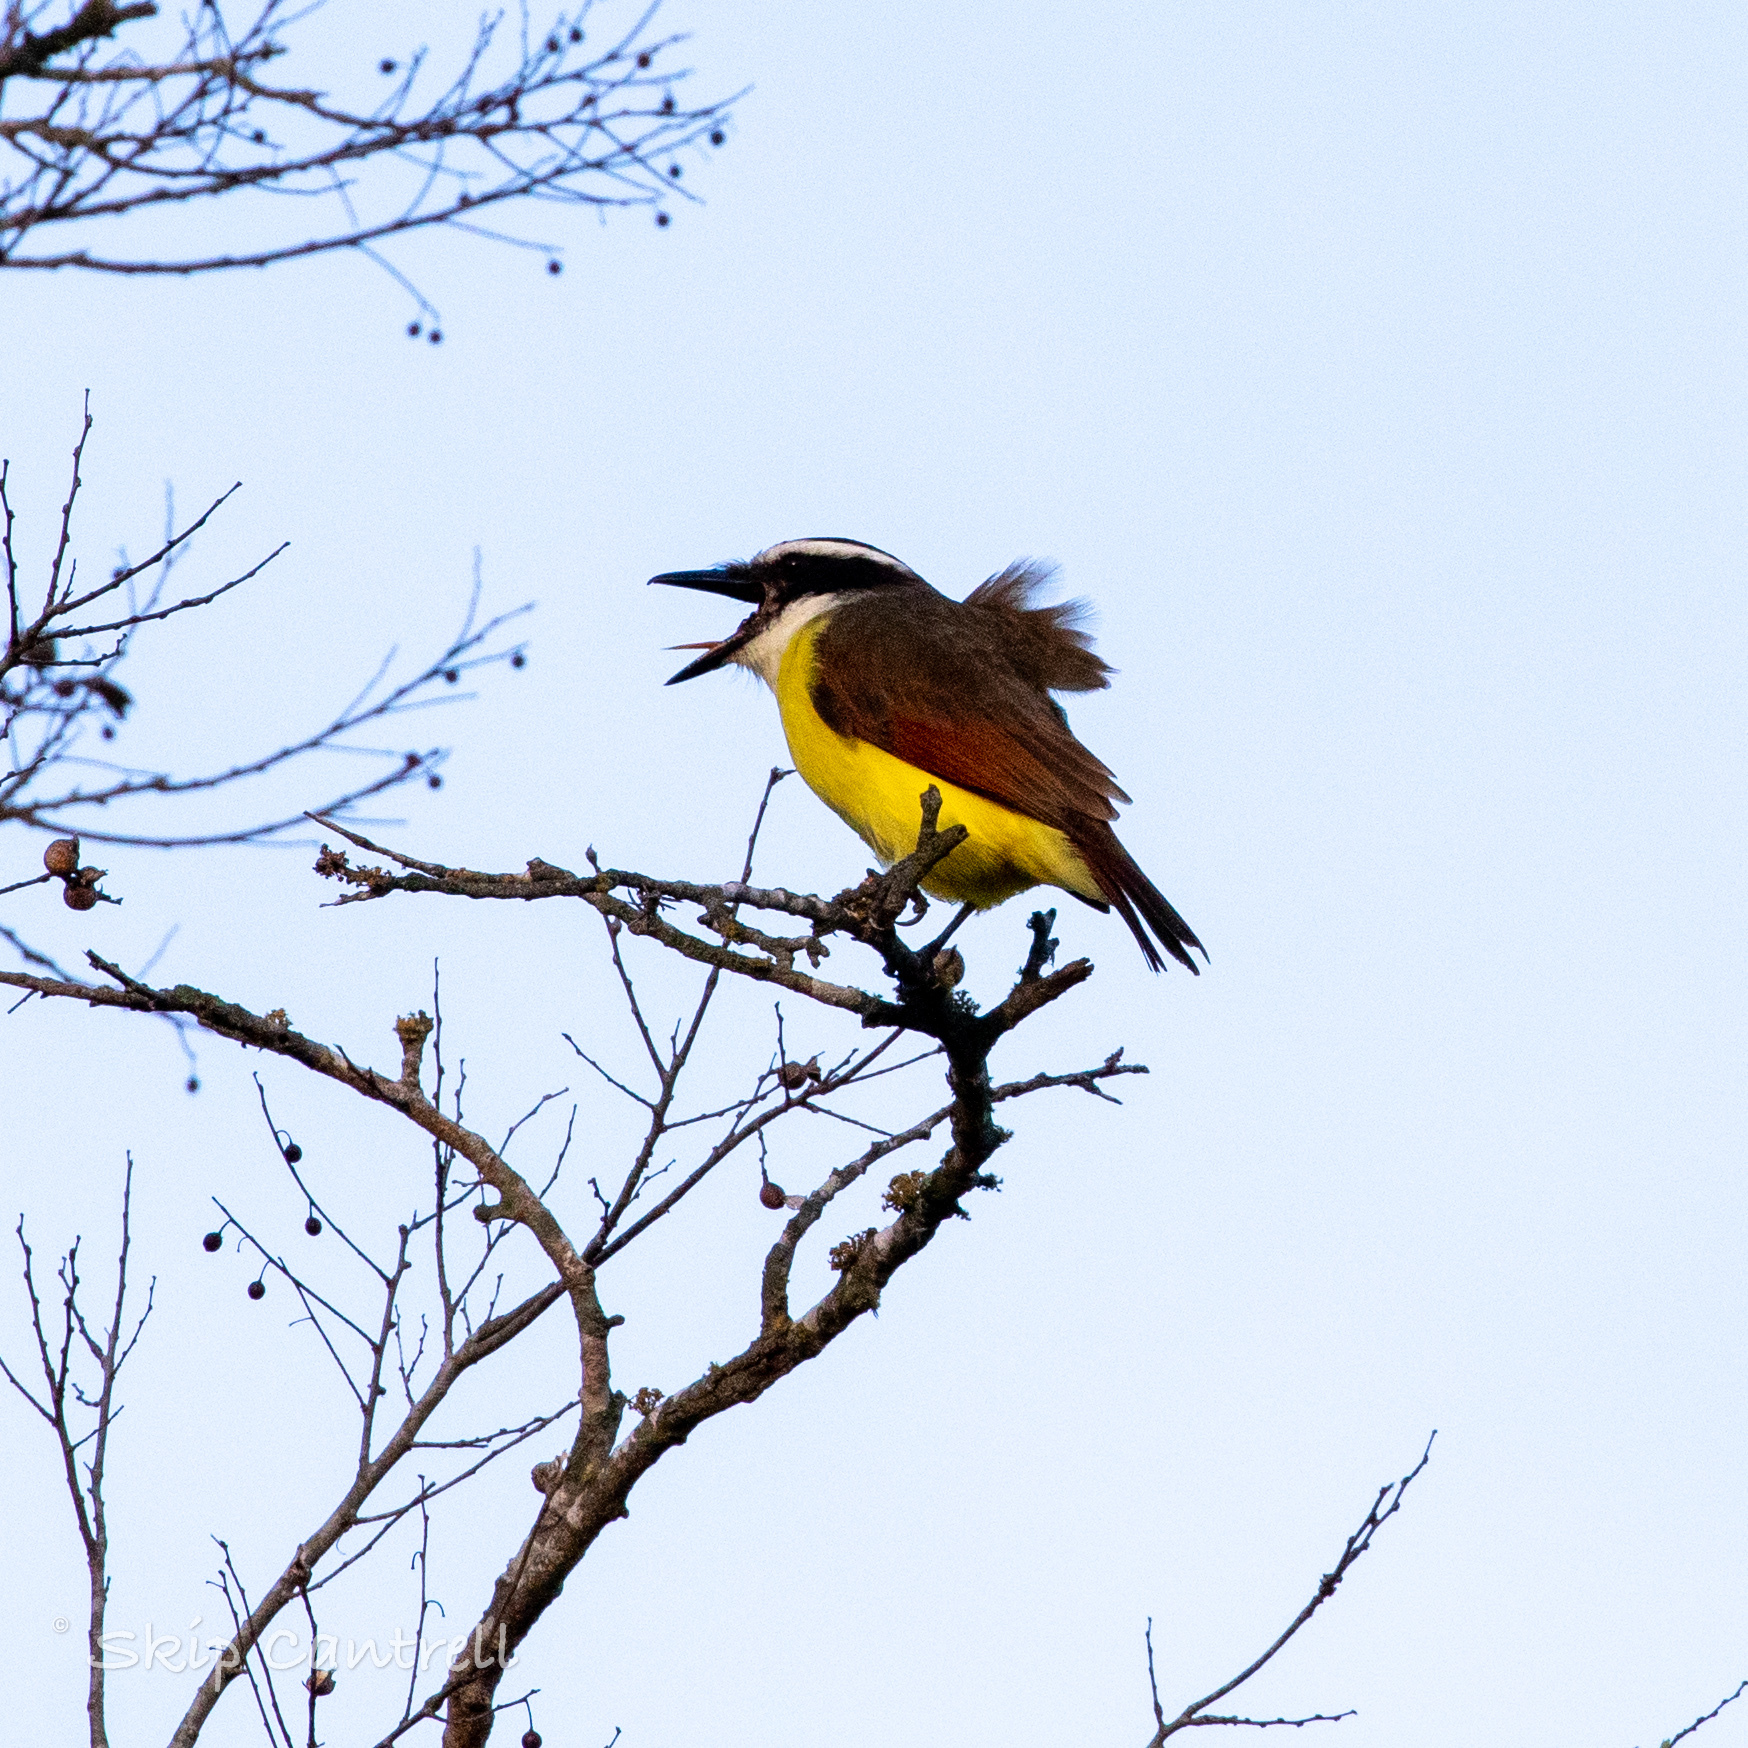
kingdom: Animalia
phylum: Chordata
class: Aves
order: Passeriformes
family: Tyrannidae
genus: Pitangus
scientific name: Pitangus sulphuratus
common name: Great kiskadee
